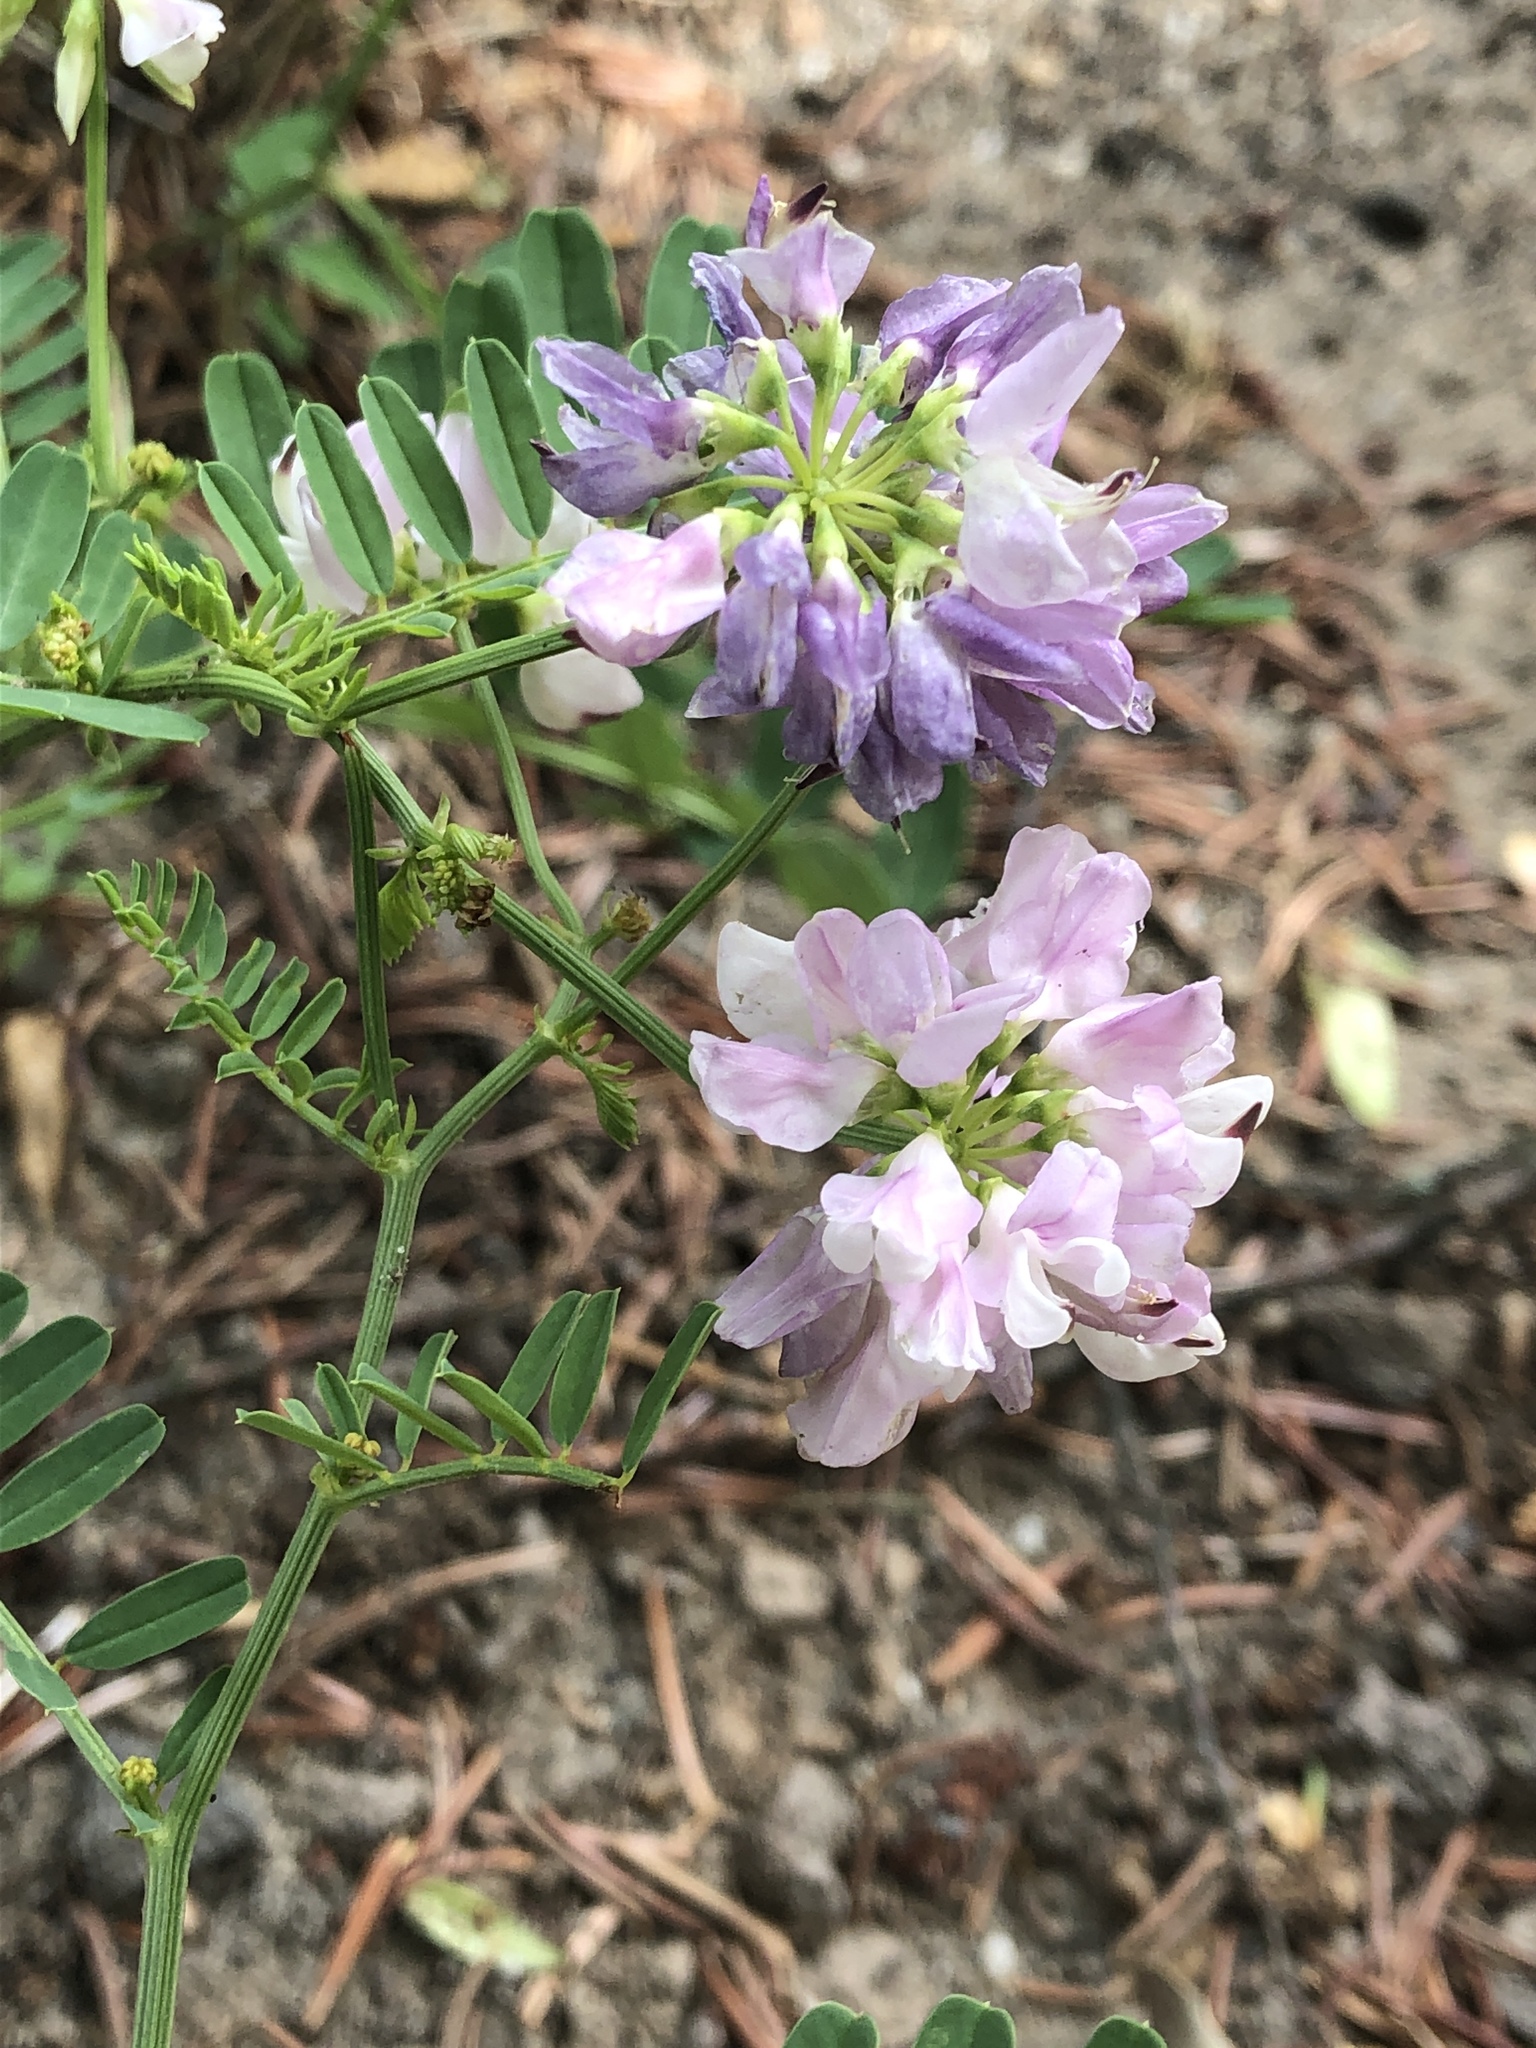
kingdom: Plantae
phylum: Tracheophyta
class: Magnoliopsida
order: Fabales
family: Fabaceae
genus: Coronilla
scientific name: Coronilla varia
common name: Crownvetch
